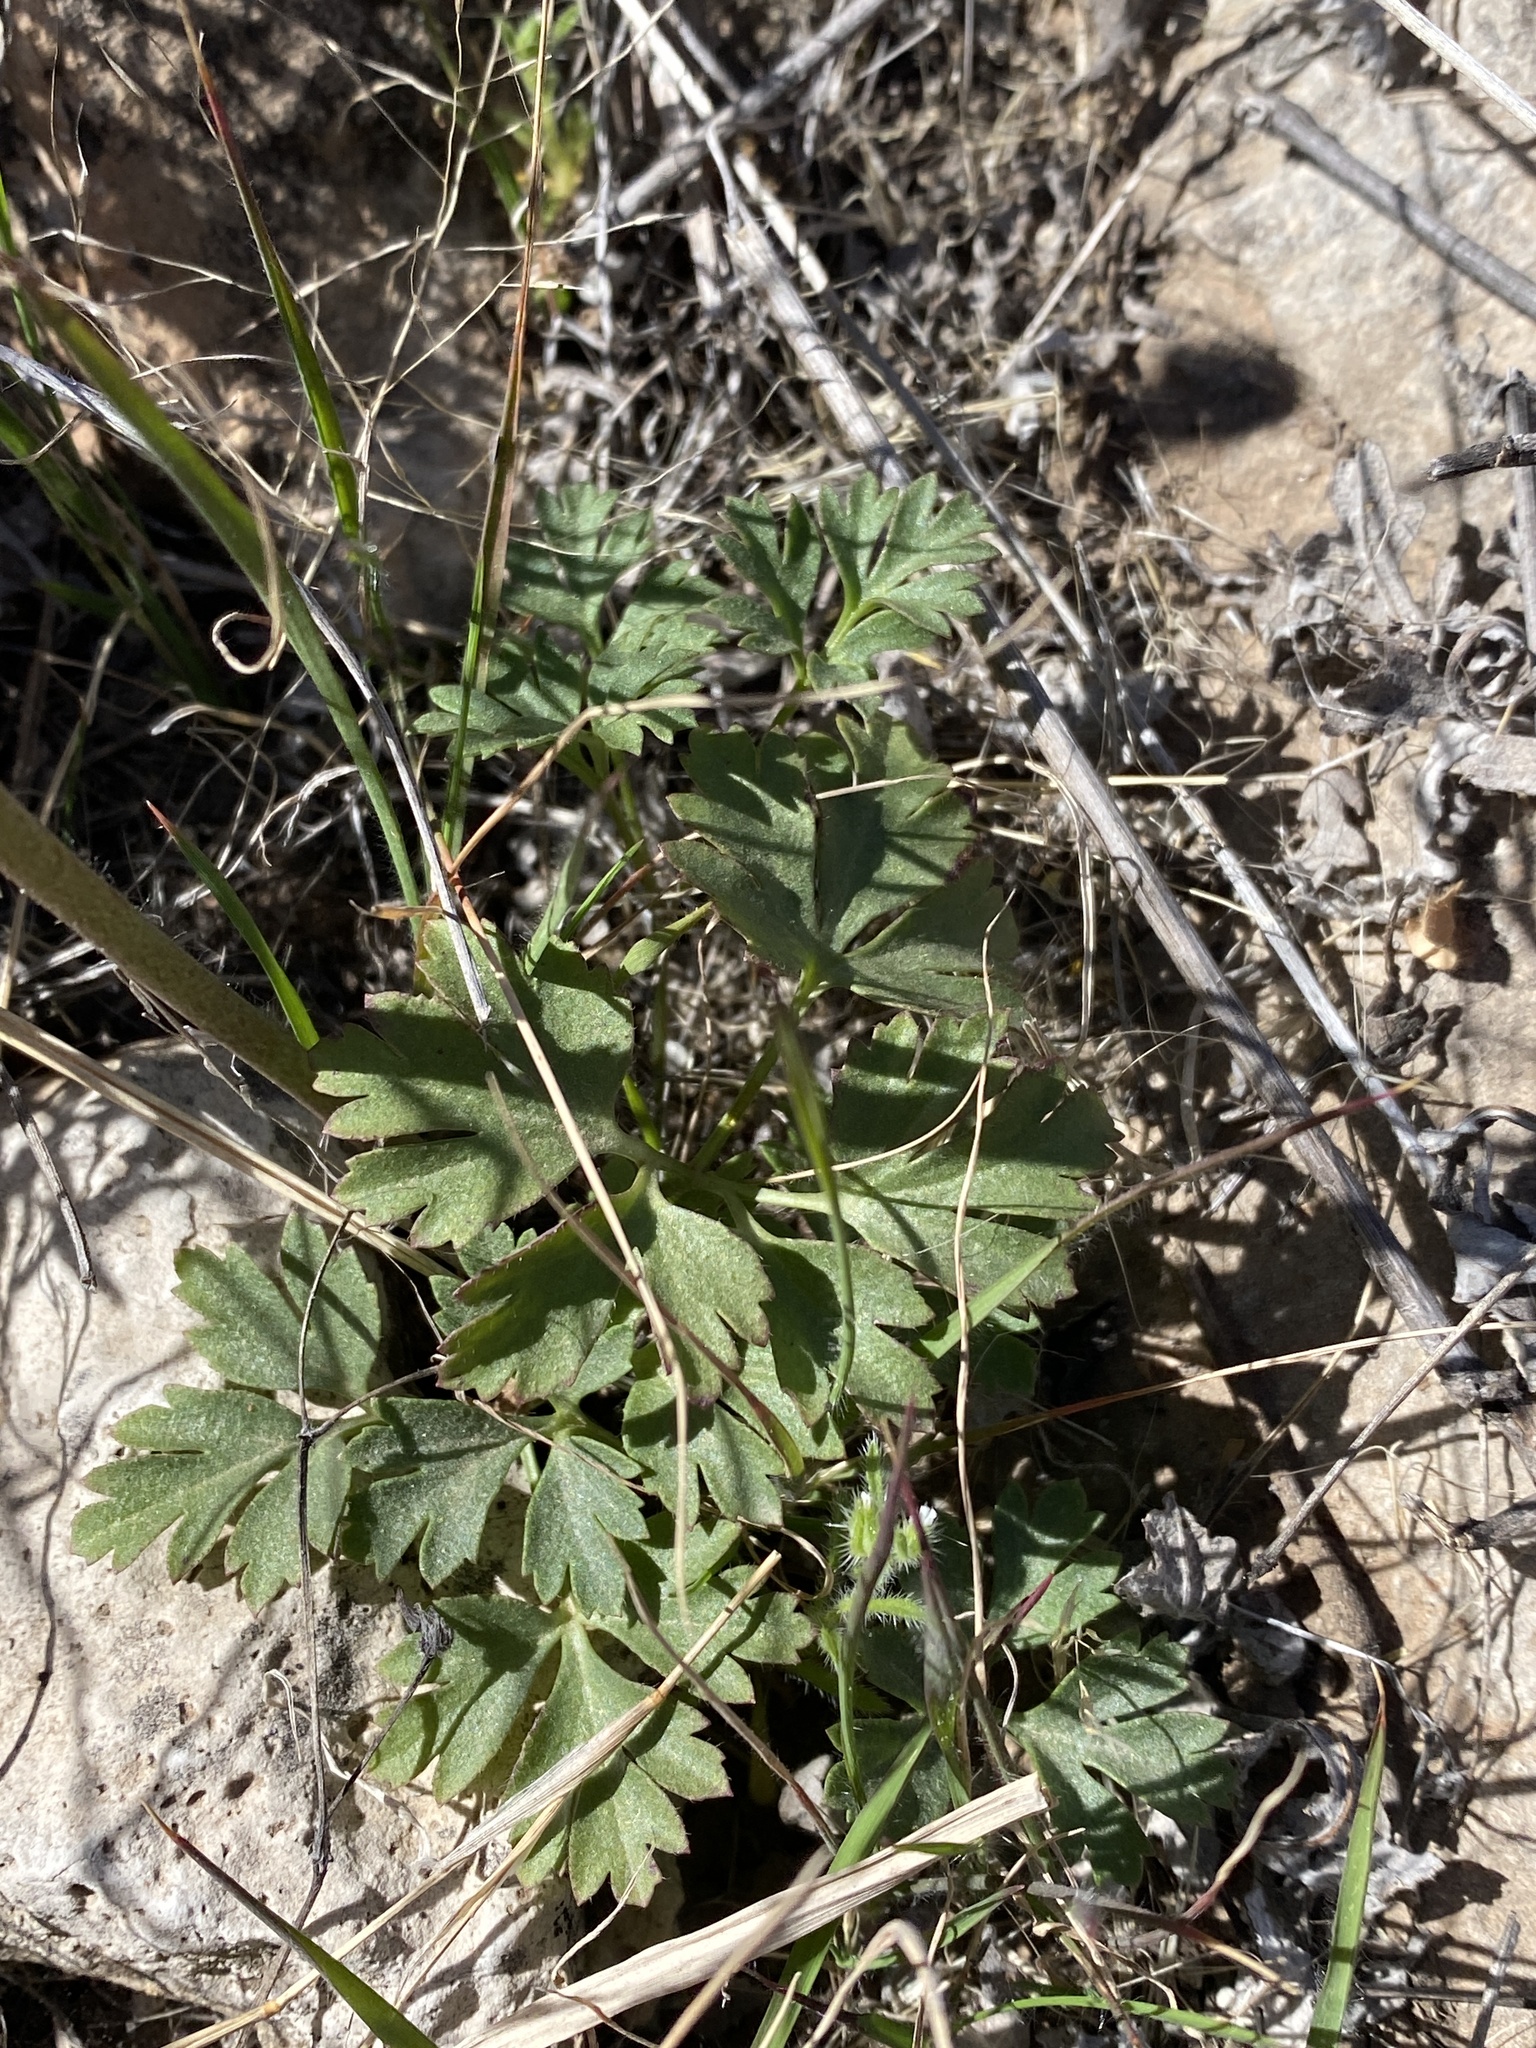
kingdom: Plantae
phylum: Tracheophyta
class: Magnoliopsida
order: Ranunculales
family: Ranunculaceae
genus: Anemone
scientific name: Anemone tuberosa
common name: Desert anemone
